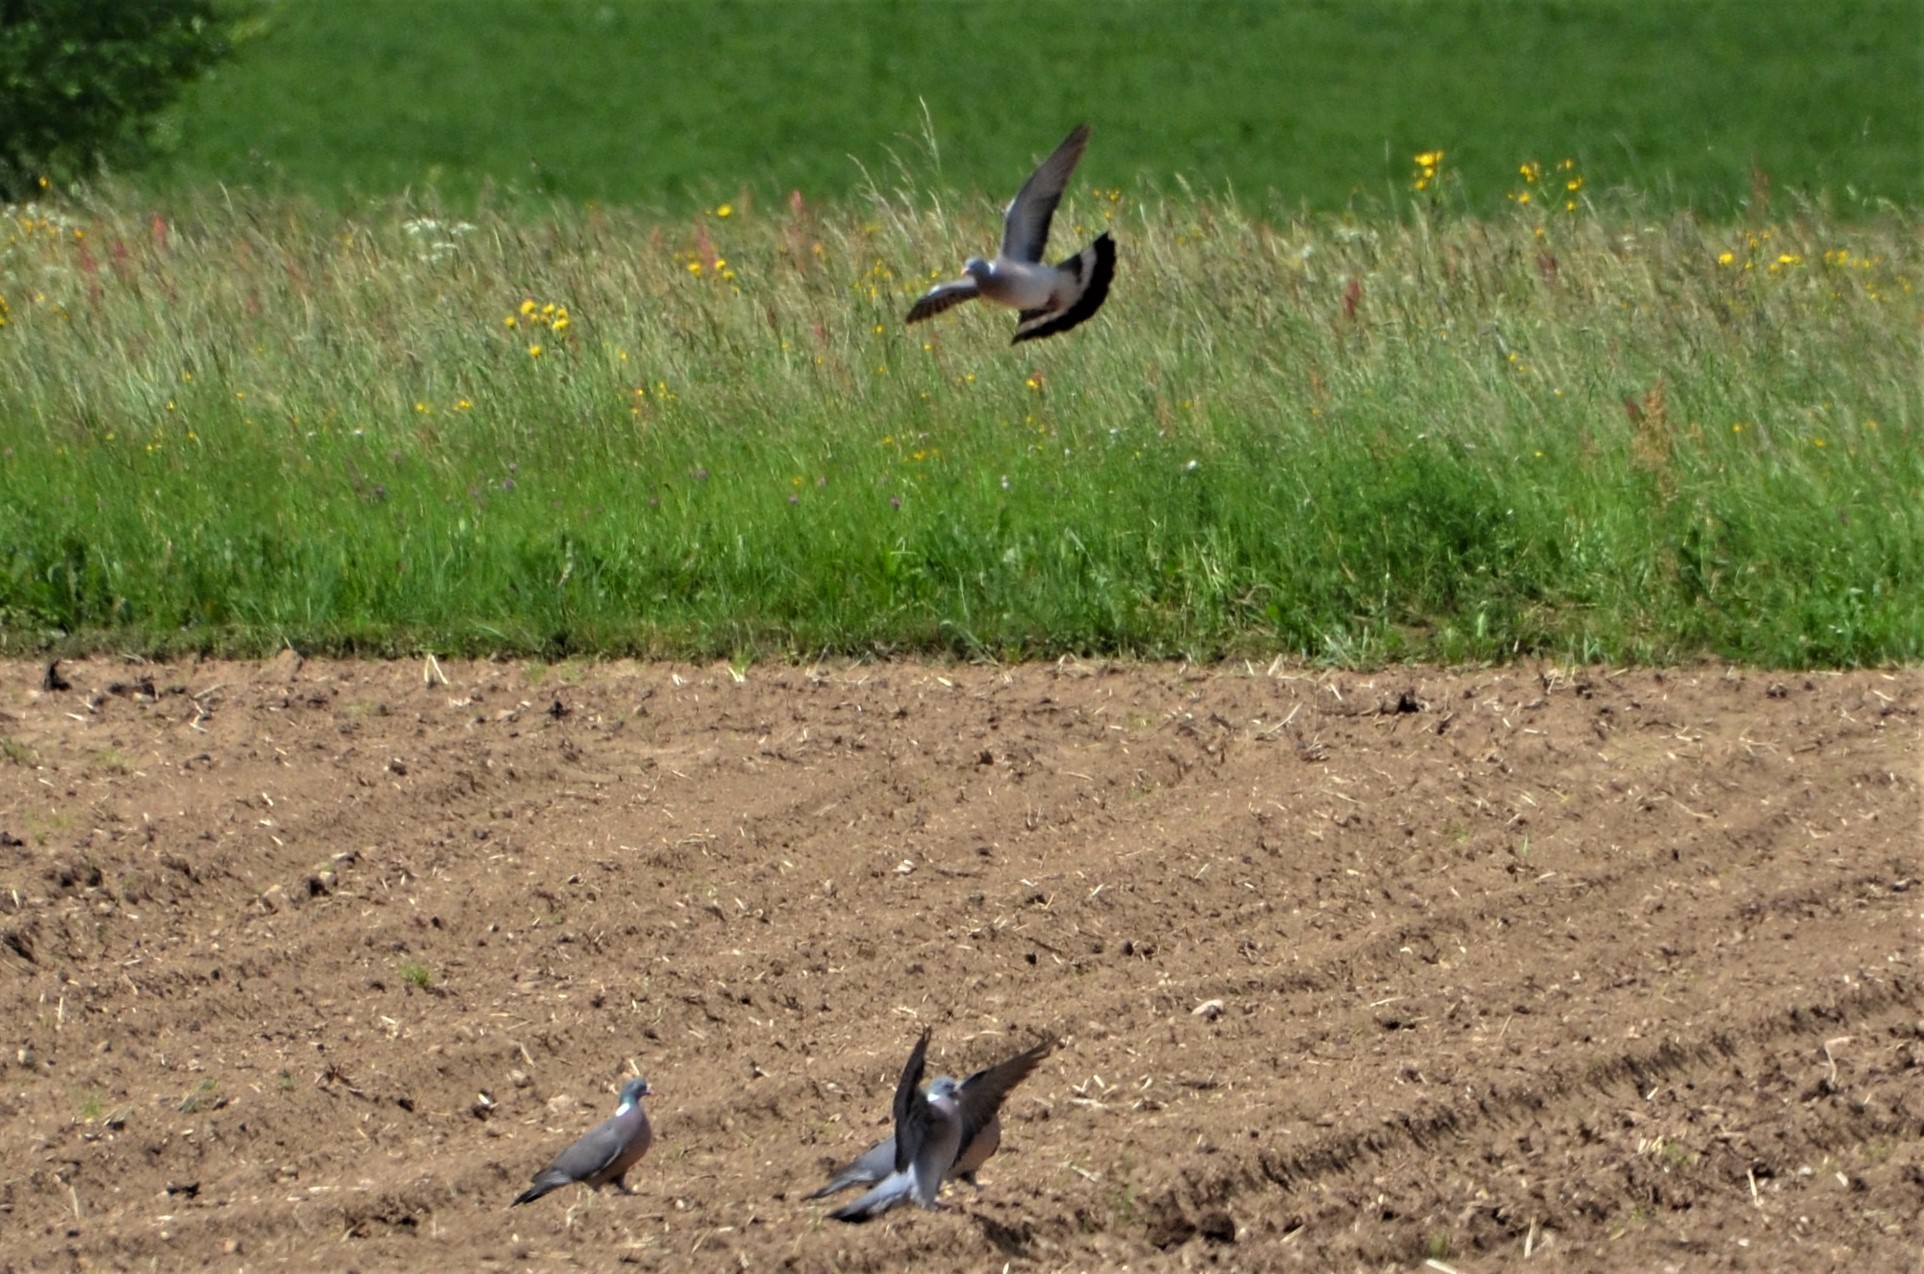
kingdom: Animalia
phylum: Chordata
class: Aves
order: Columbiformes
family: Columbidae
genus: Columba
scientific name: Columba palumbus
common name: Common wood pigeon
